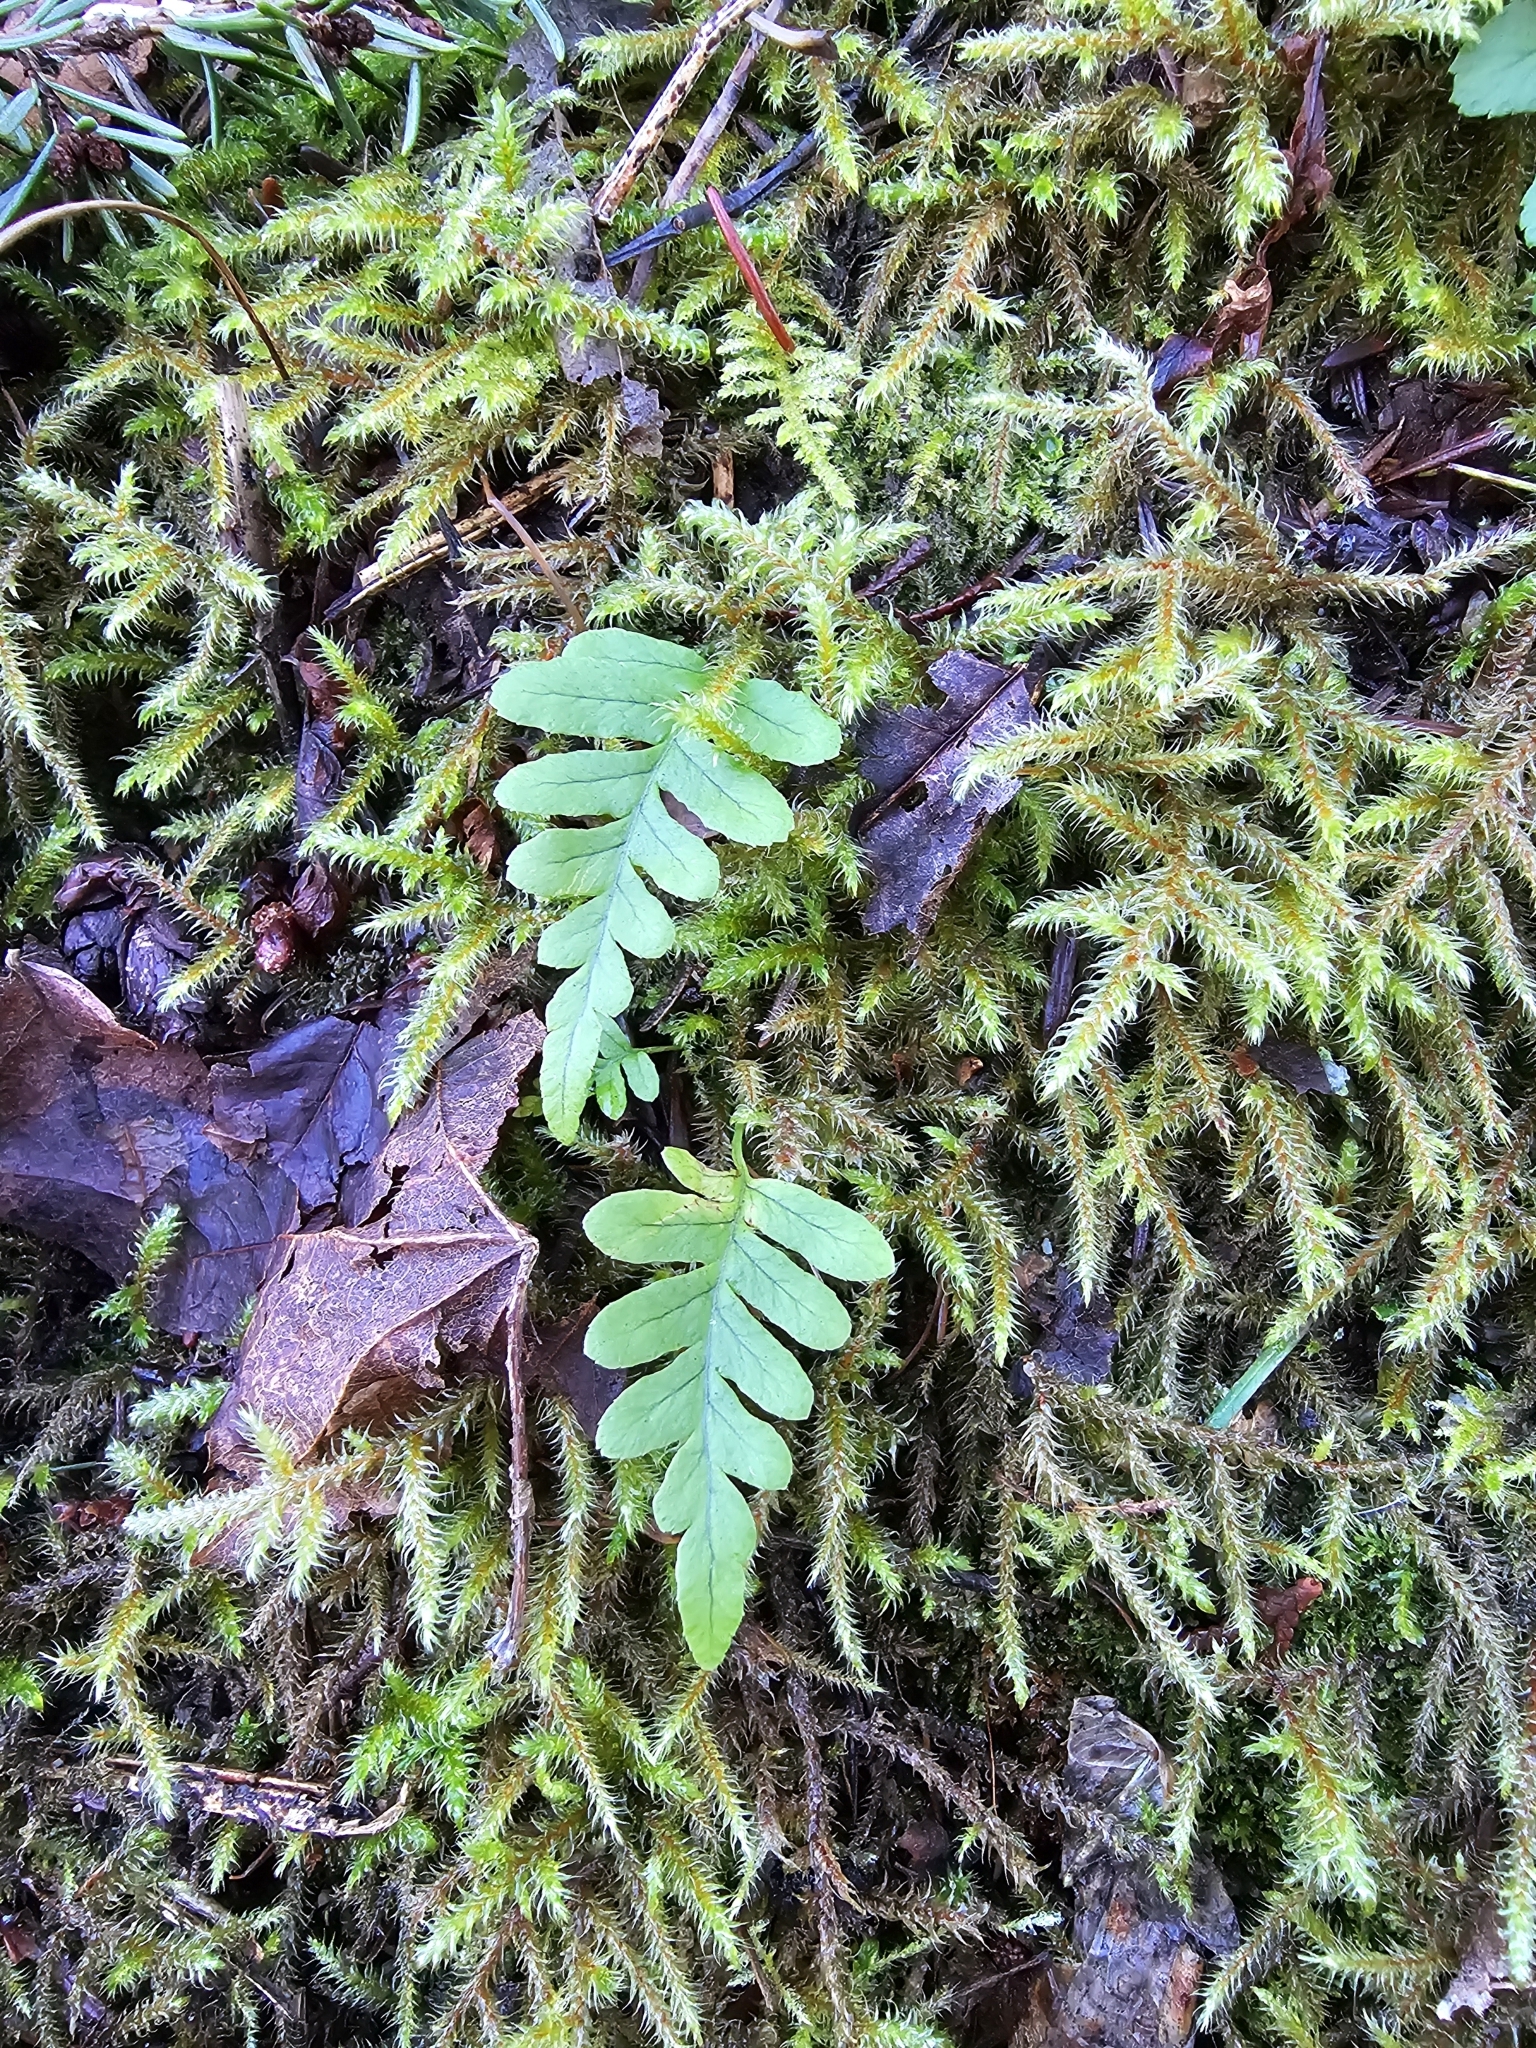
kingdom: Plantae
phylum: Tracheophyta
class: Polypodiopsida
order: Polypodiales
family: Polypodiaceae
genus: Polypodium
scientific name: Polypodium glycyrrhiza
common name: Licorice fern
